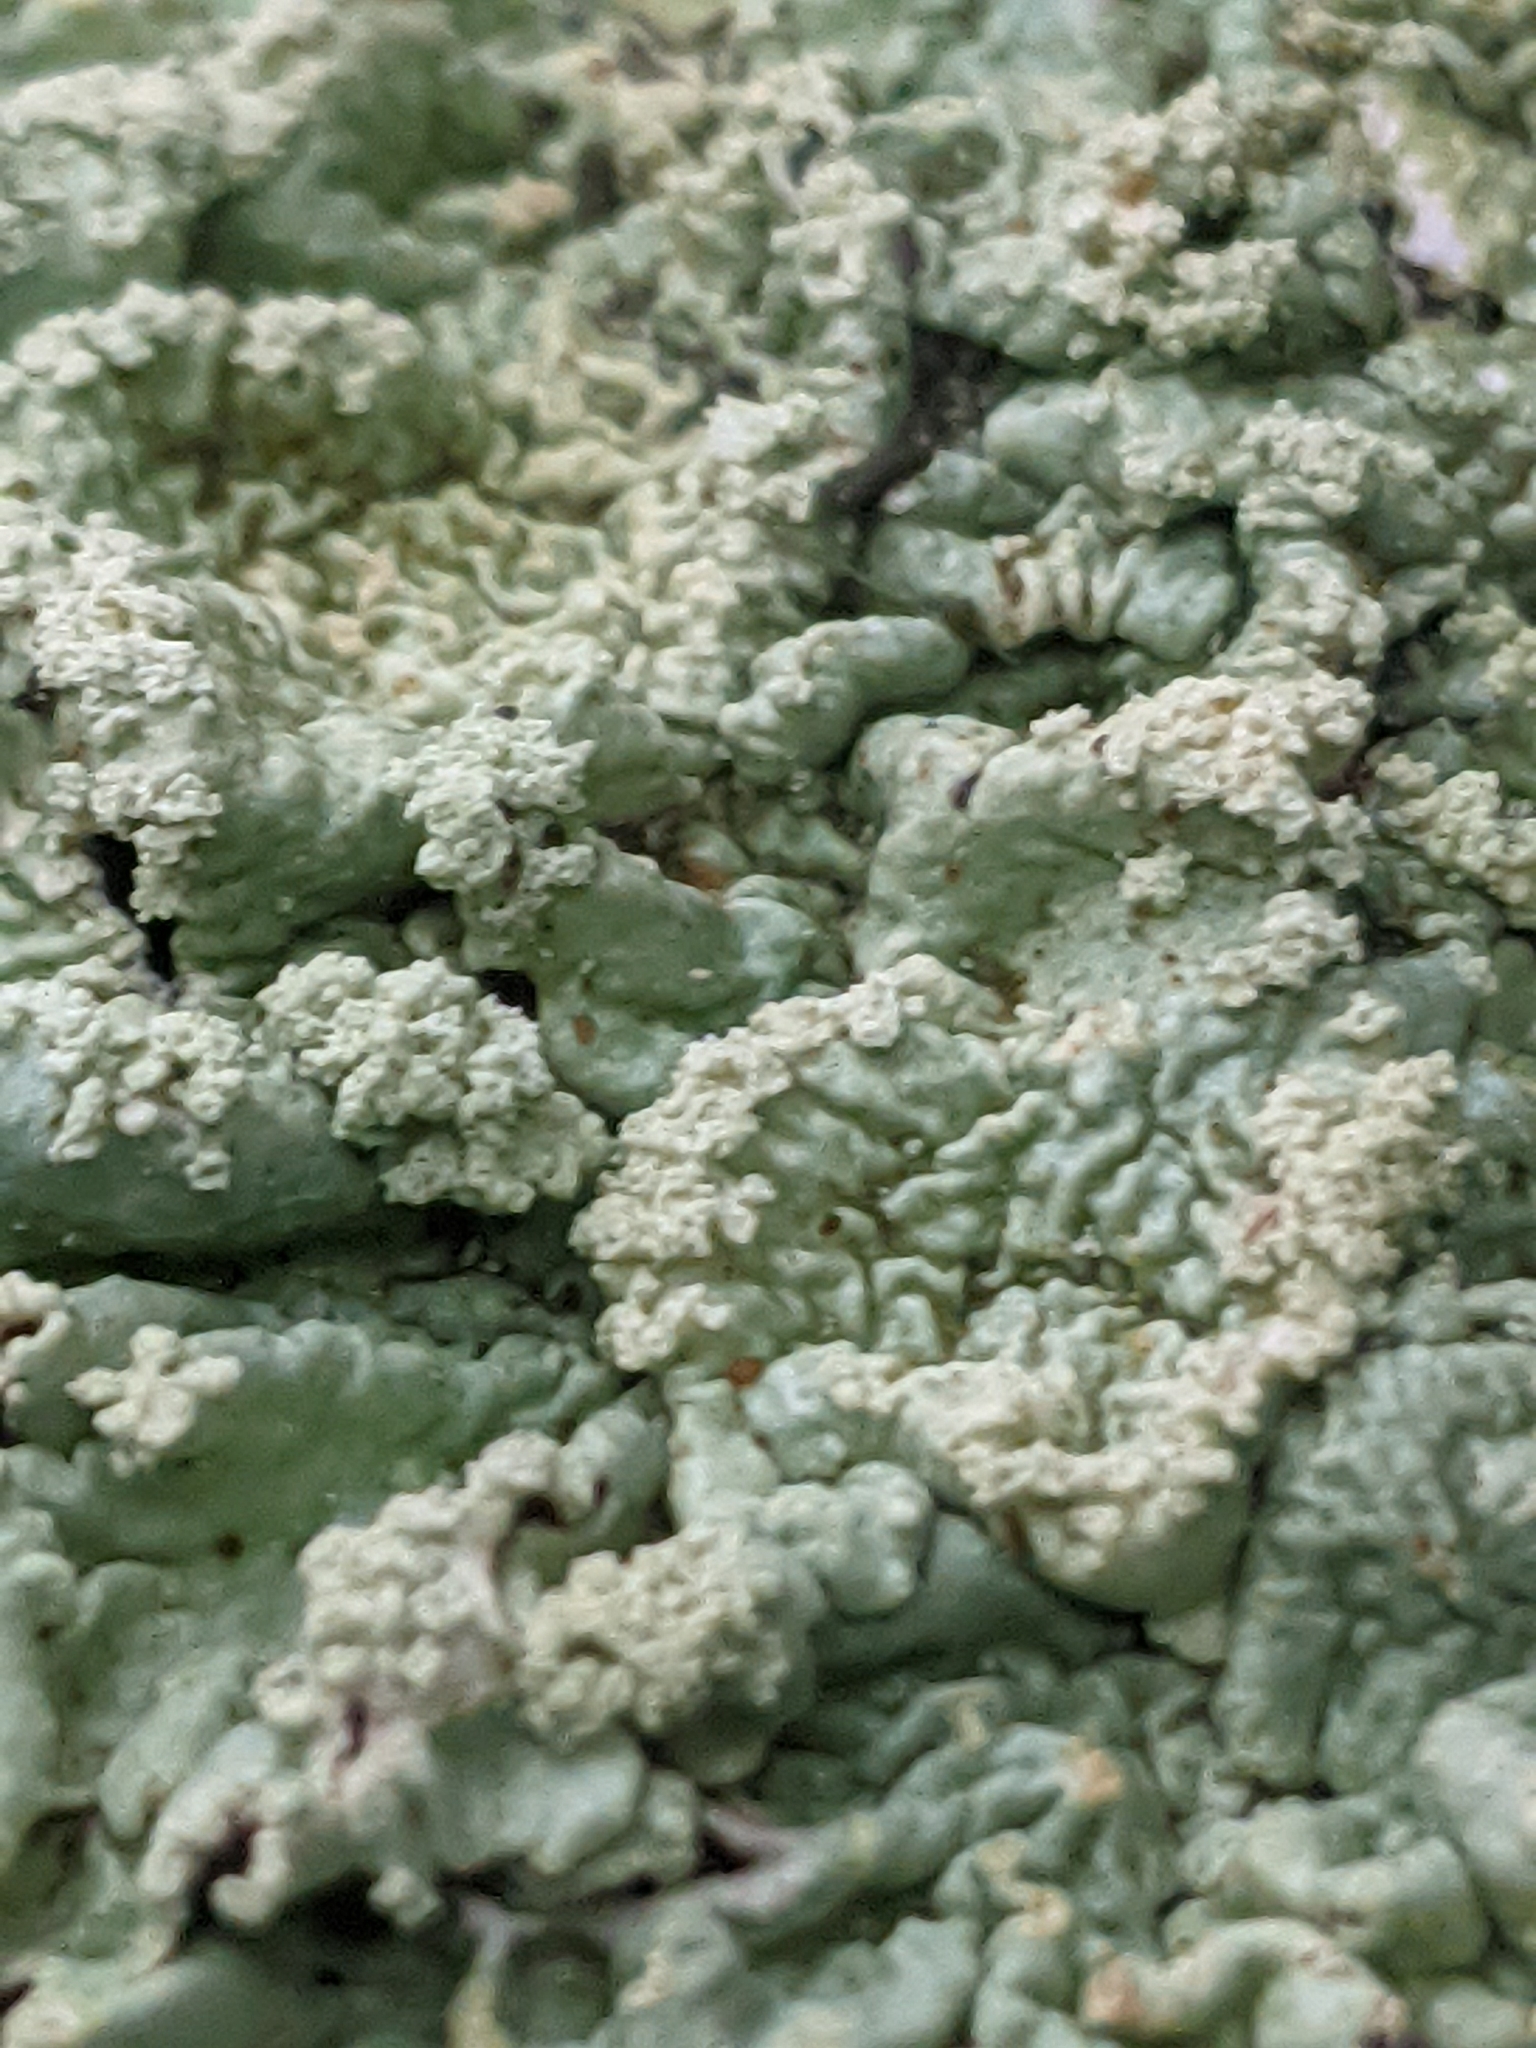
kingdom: Fungi
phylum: Ascomycota
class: Lecanoromycetes
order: Lecanorales
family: Parmeliaceae
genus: Flavoparmelia
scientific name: Flavoparmelia caperata
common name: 40-mile per hour lichen
